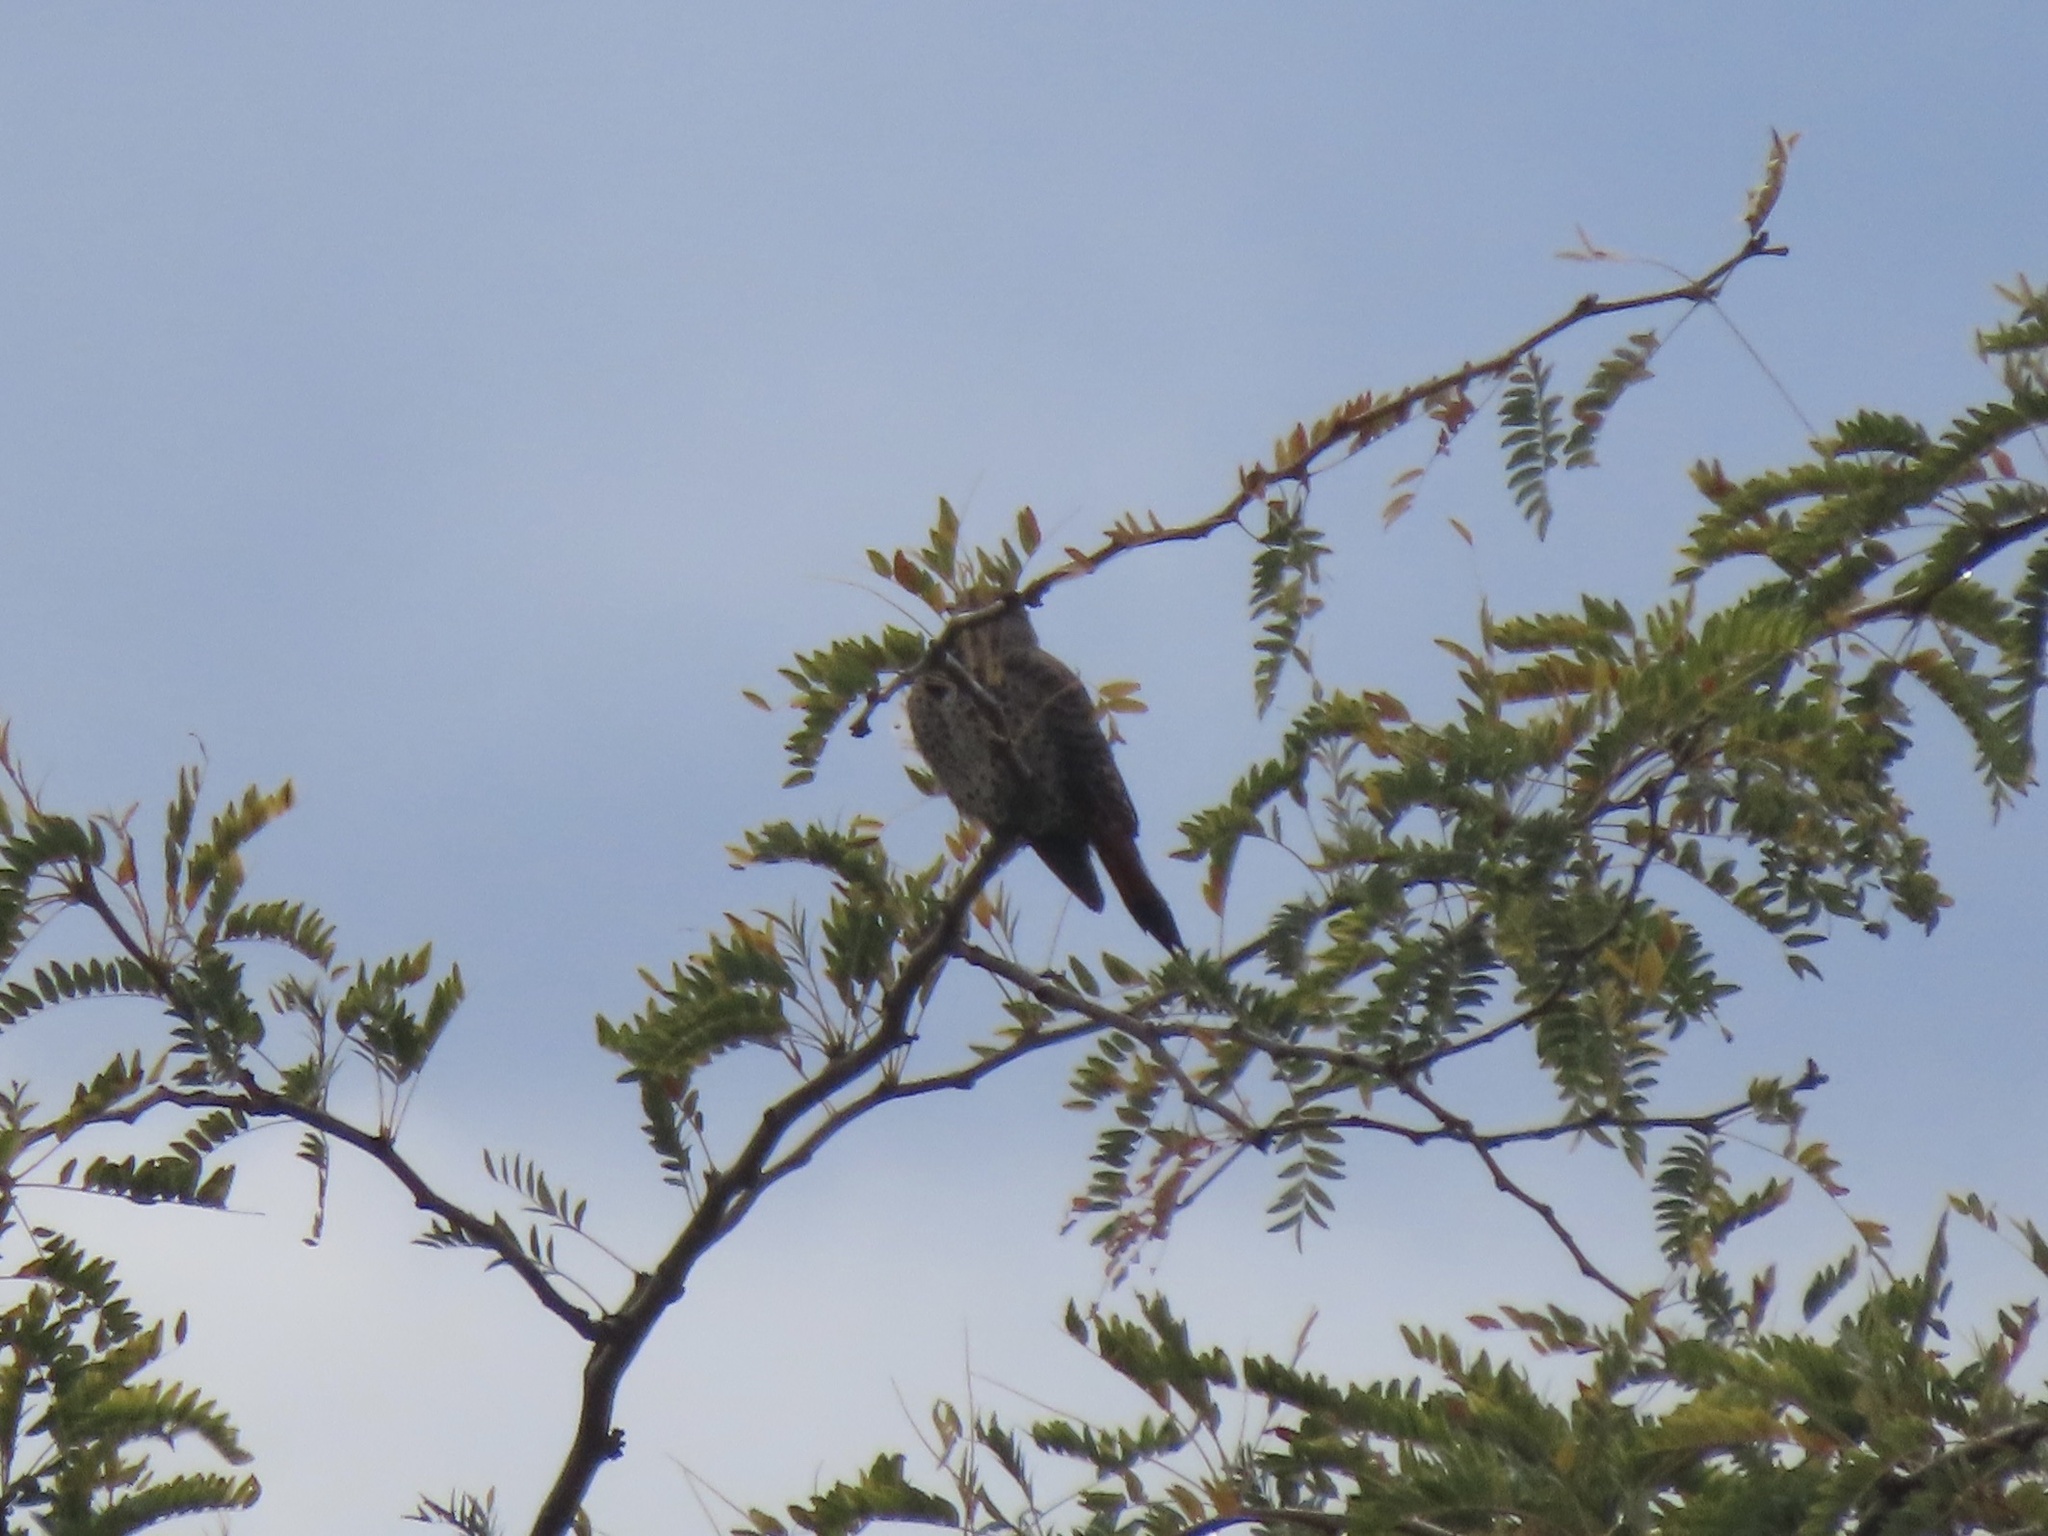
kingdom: Animalia
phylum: Chordata
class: Aves
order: Piciformes
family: Picidae
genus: Colaptes
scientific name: Colaptes auratus
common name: Northern flicker
